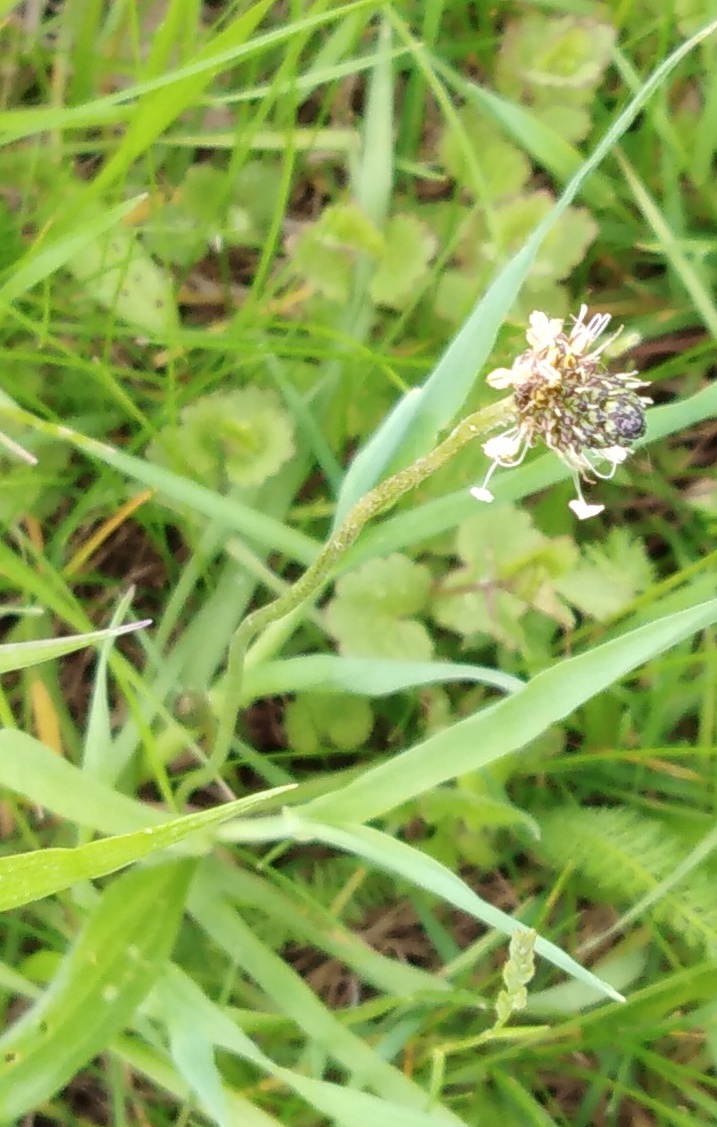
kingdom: Plantae
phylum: Tracheophyta
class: Magnoliopsida
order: Lamiales
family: Plantaginaceae
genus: Plantago
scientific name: Plantago lanceolata
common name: Ribwort plantain
